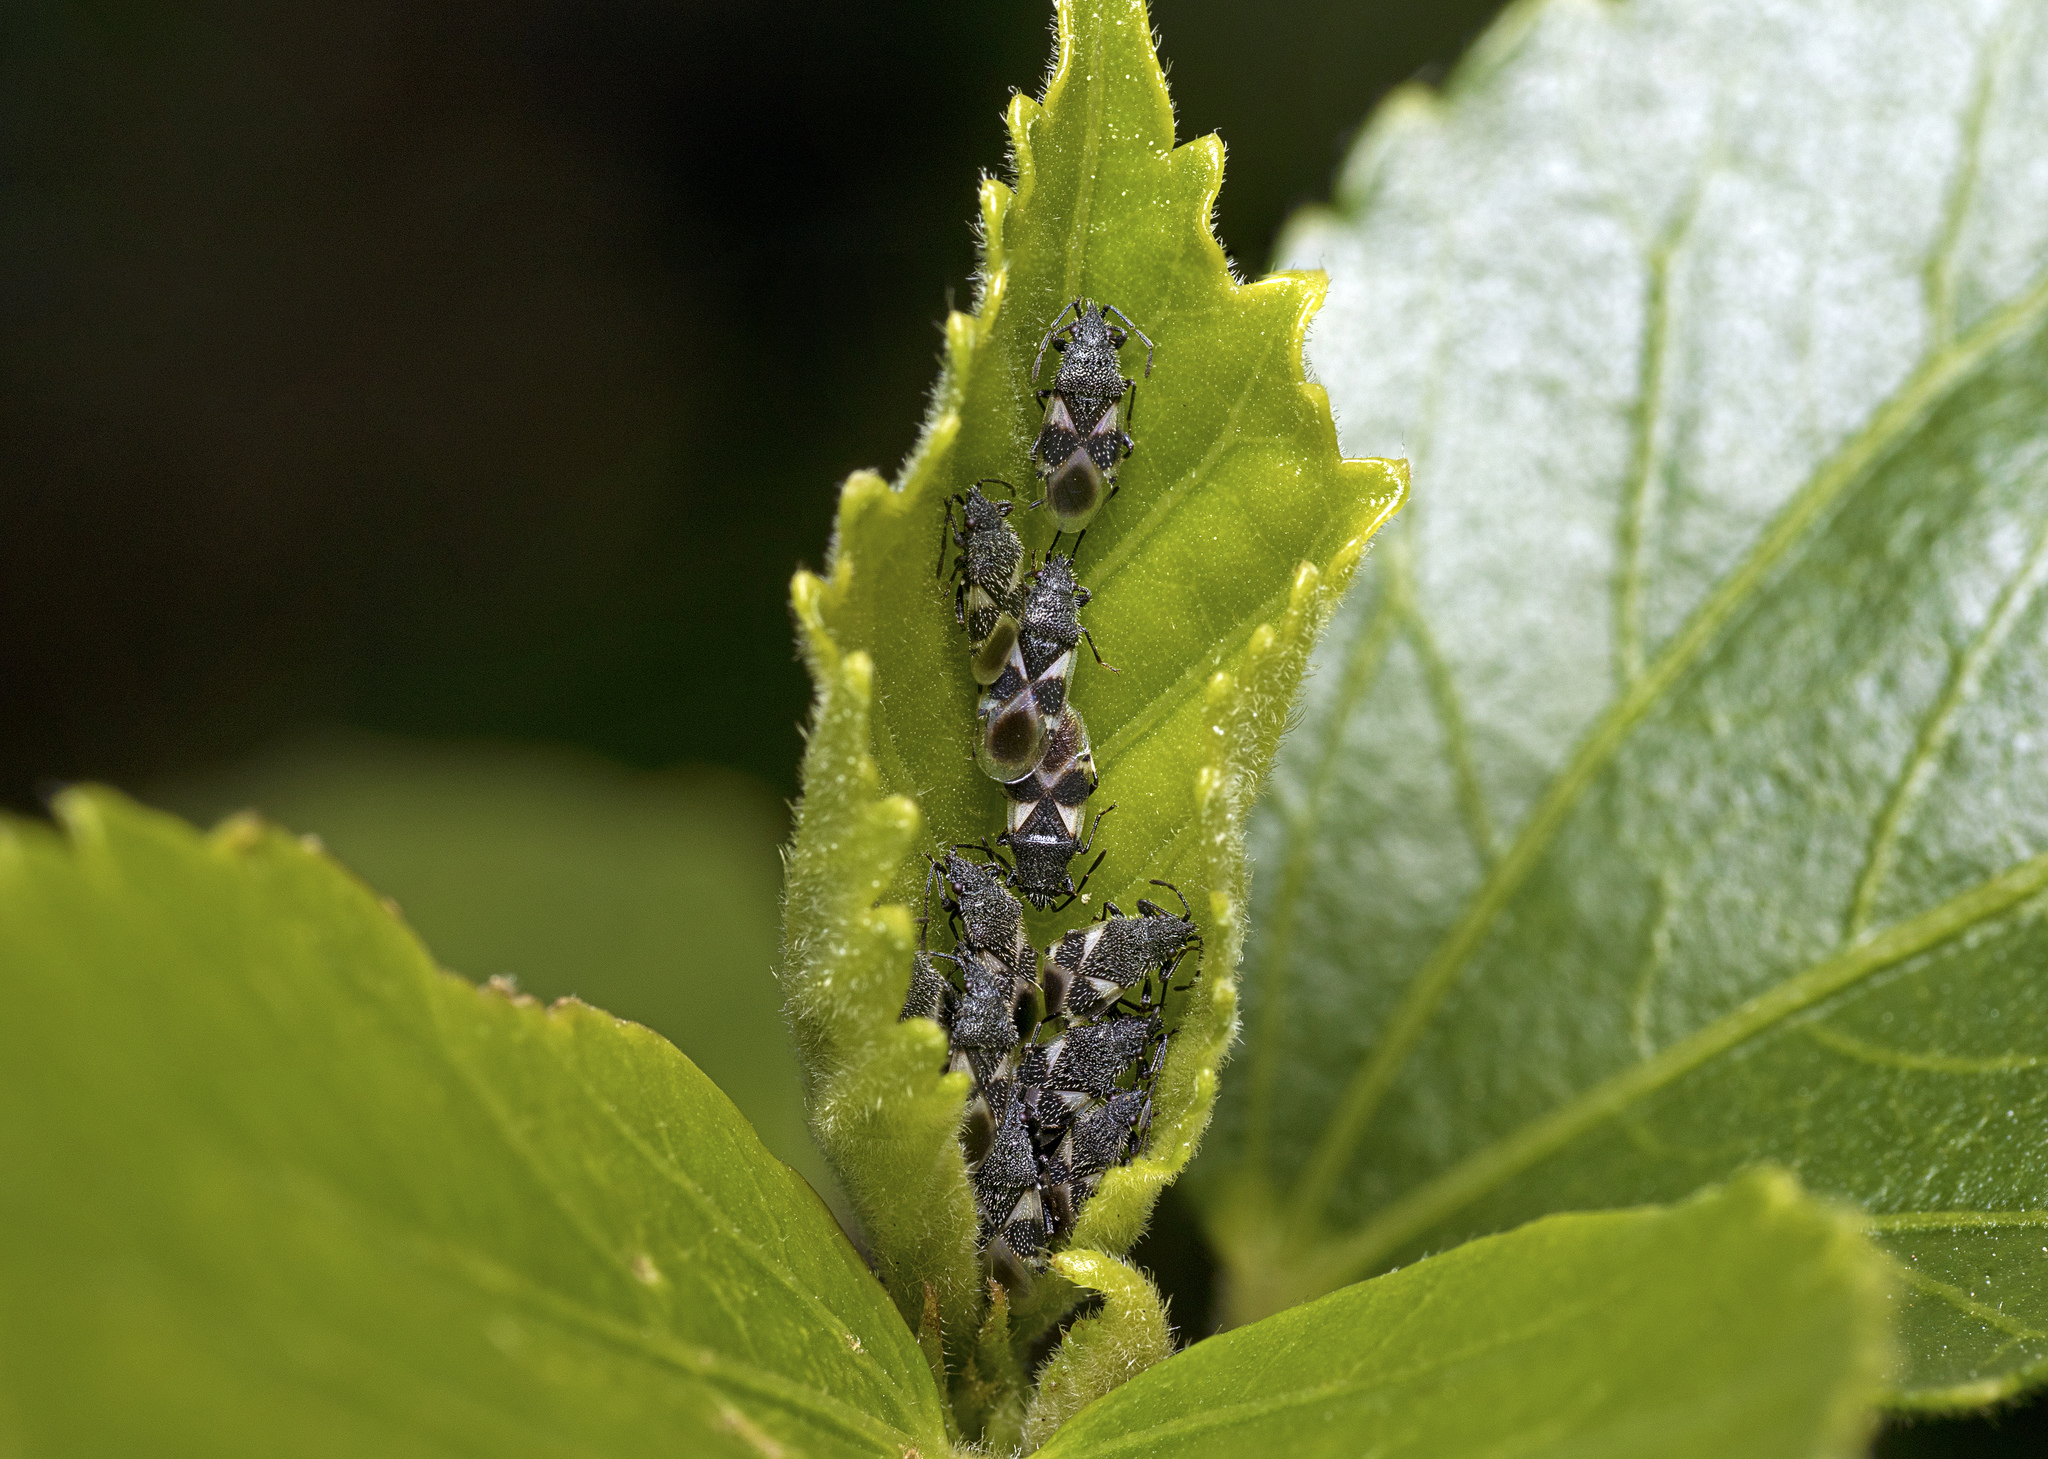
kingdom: Animalia
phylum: Arthropoda
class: Insecta
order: Hemiptera
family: Oxycarenidae
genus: Oxycarenus
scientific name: Oxycarenus luctuosus
